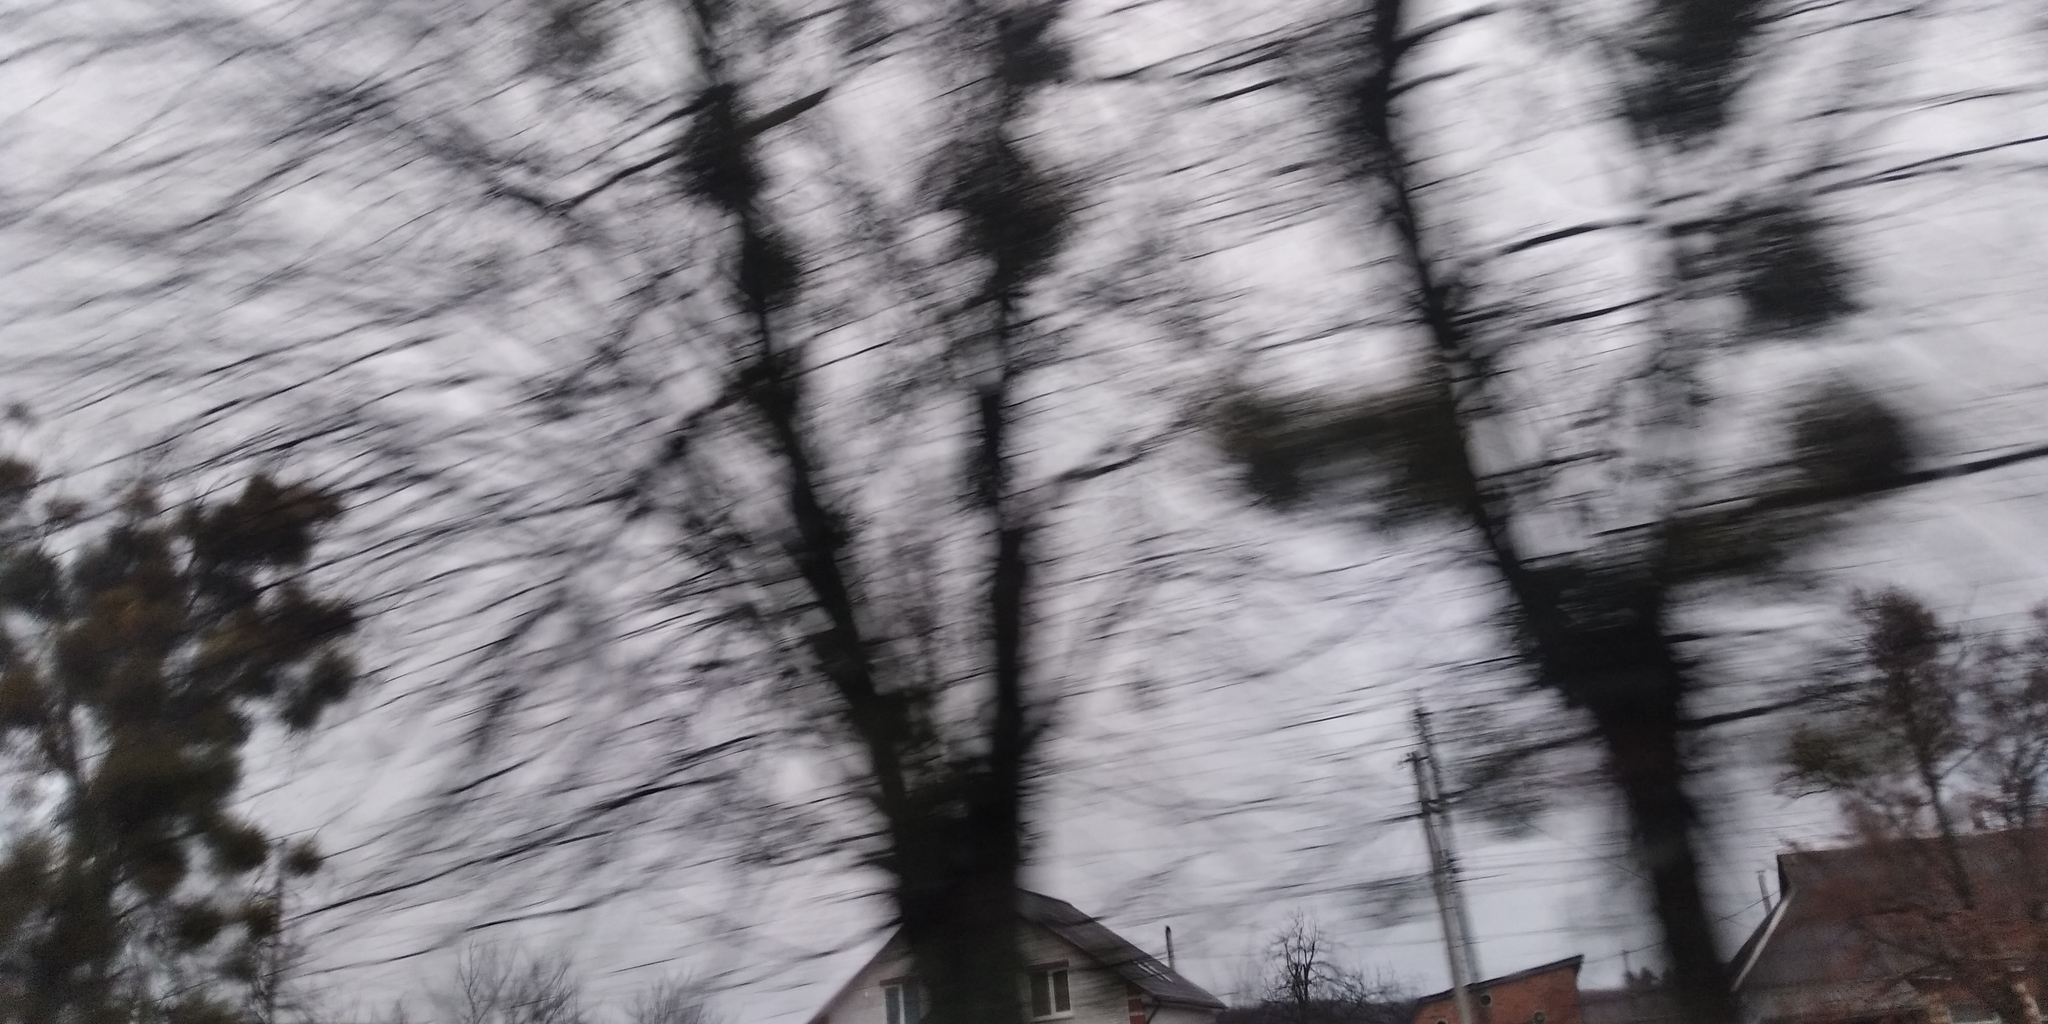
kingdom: Plantae
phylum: Tracheophyta
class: Magnoliopsida
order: Santalales
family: Viscaceae
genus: Viscum
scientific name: Viscum album
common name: Mistletoe
